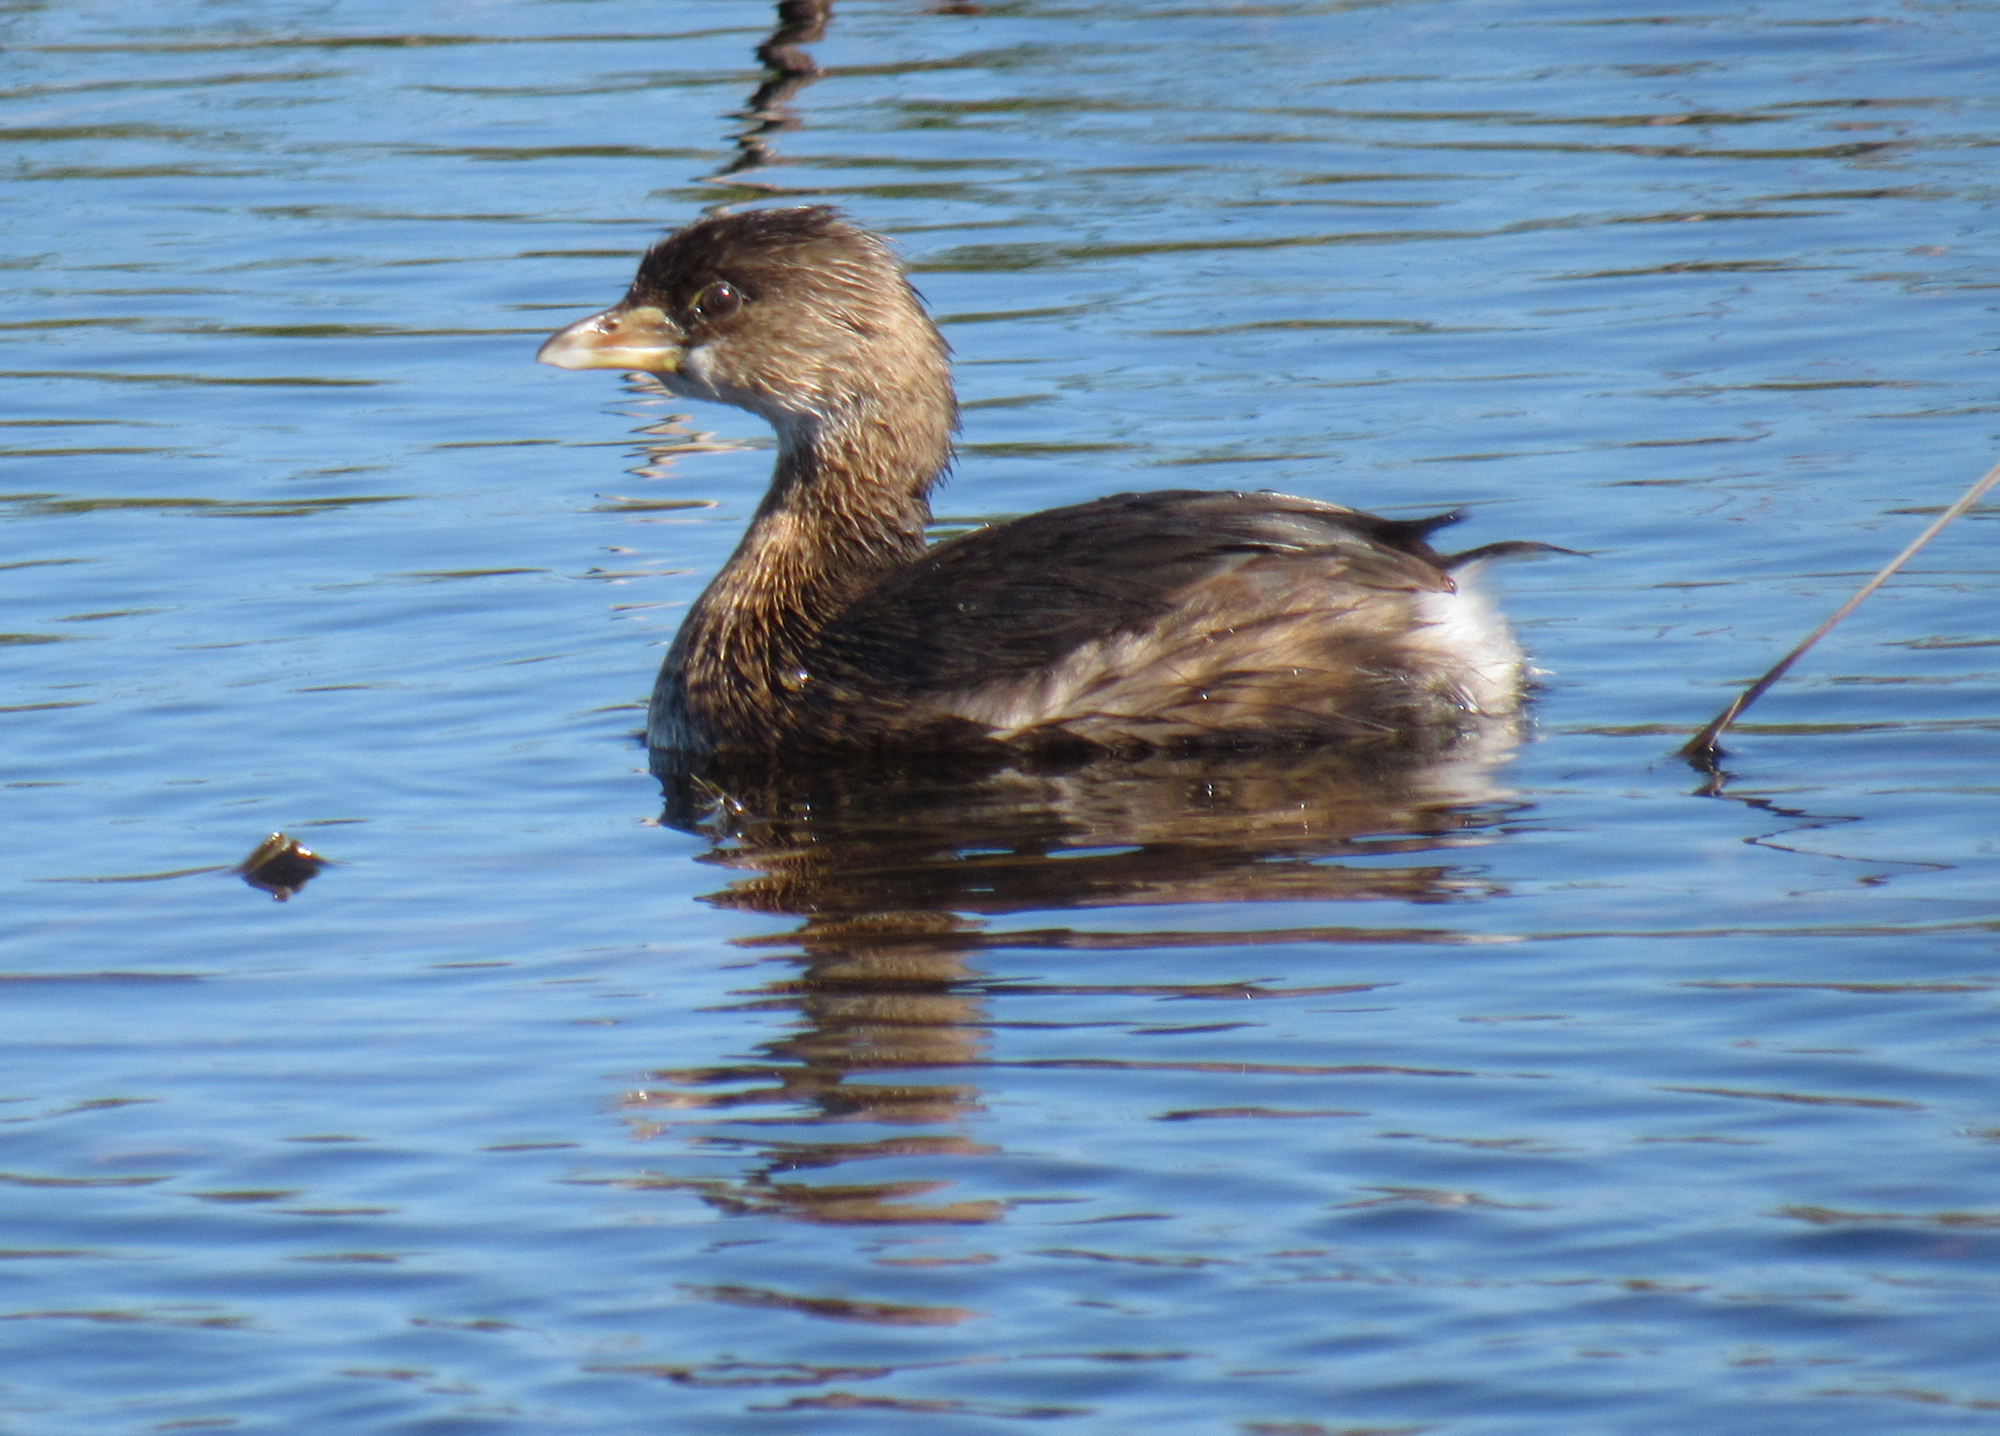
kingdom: Animalia
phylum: Chordata
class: Aves
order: Podicipediformes
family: Podicipedidae
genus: Podilymbus
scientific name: Podilymbus podiceps
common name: Pied-billed grebe
